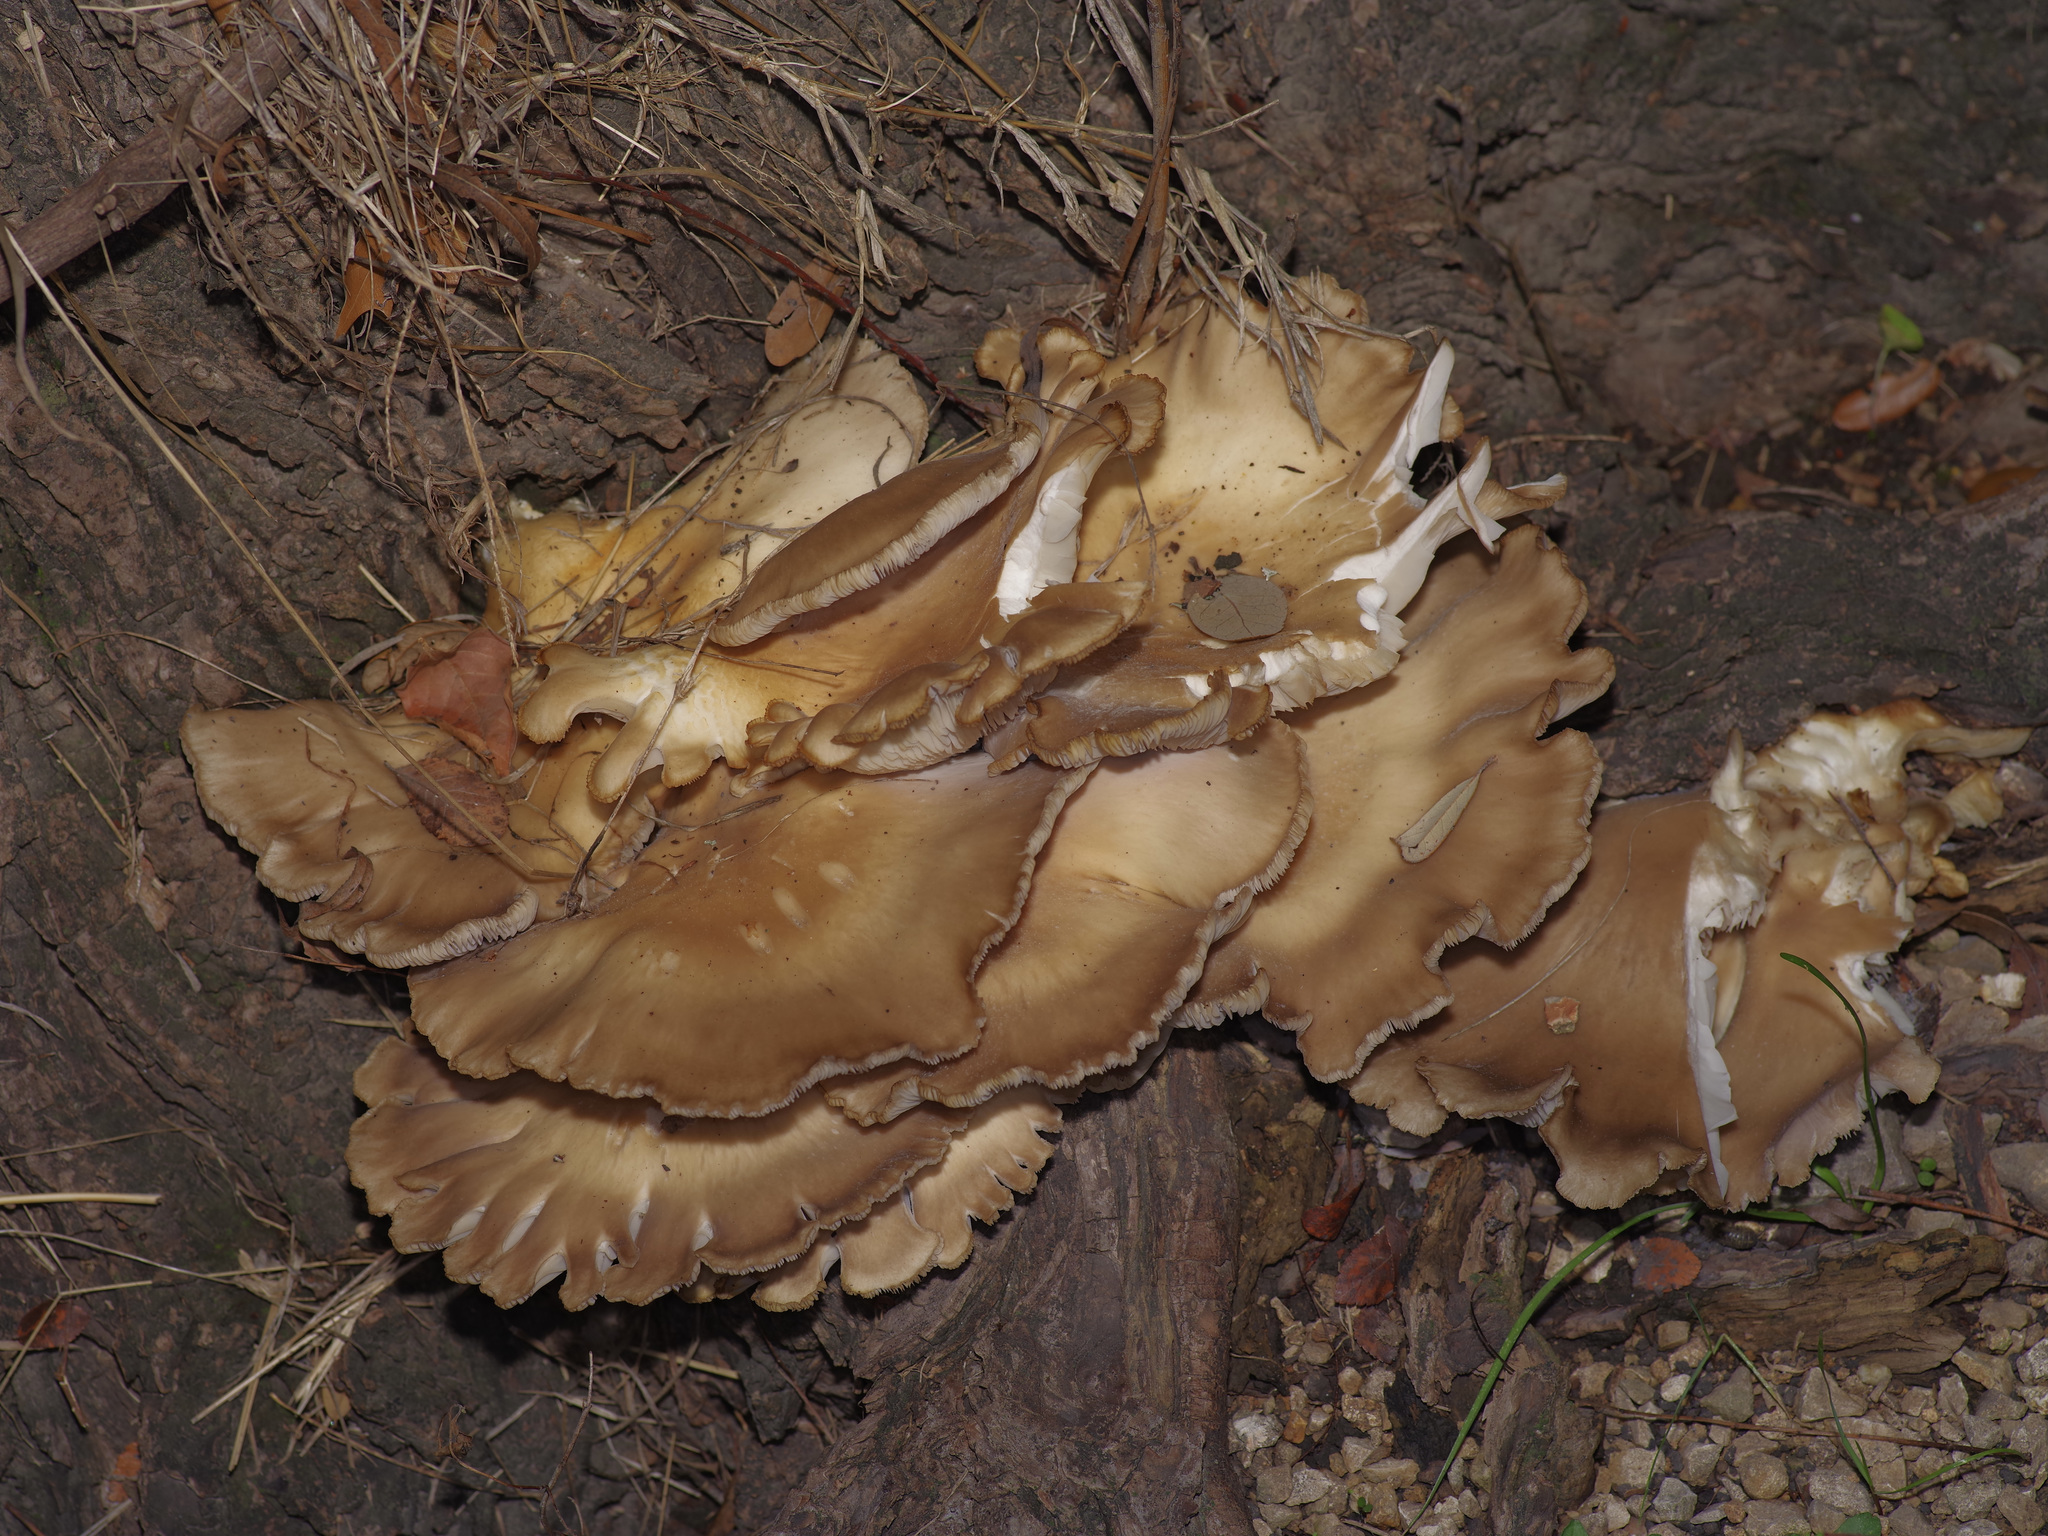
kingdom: Fungi
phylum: Basidiomycota
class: Agaricomycetes
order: Agaricales
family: Pleurotaceae
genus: Pleurotus
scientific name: Pleurotus ostreatus
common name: Oyster mushroom
